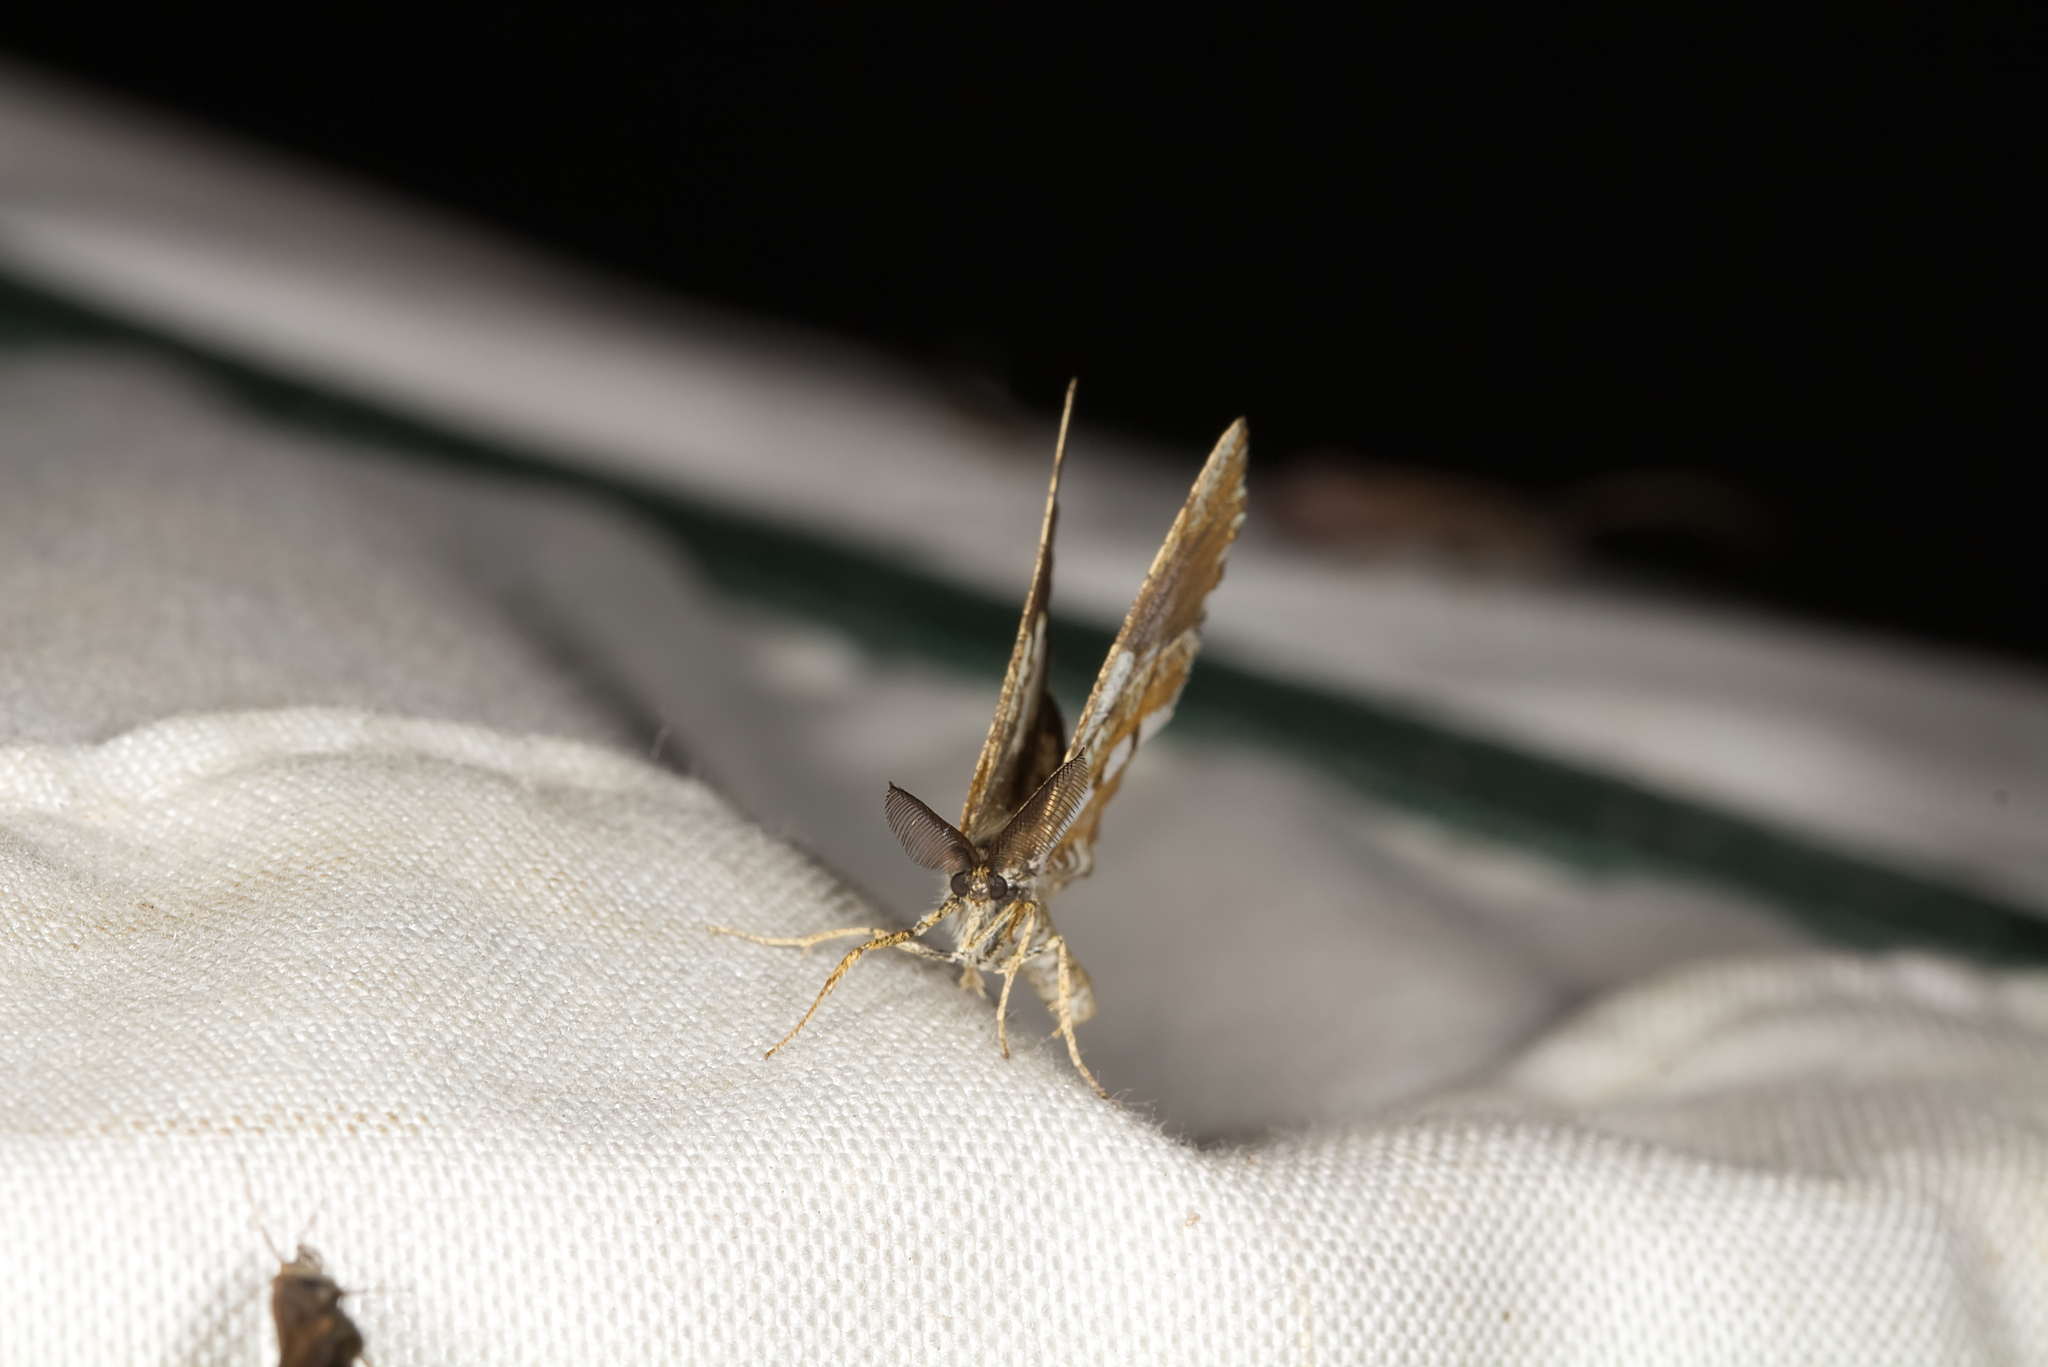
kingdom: Animalia
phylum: Arthropoda
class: Insecta
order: Lepidoptera
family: Geometridae
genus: Bupalus
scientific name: Bupalus piniaria
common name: Bordered white
